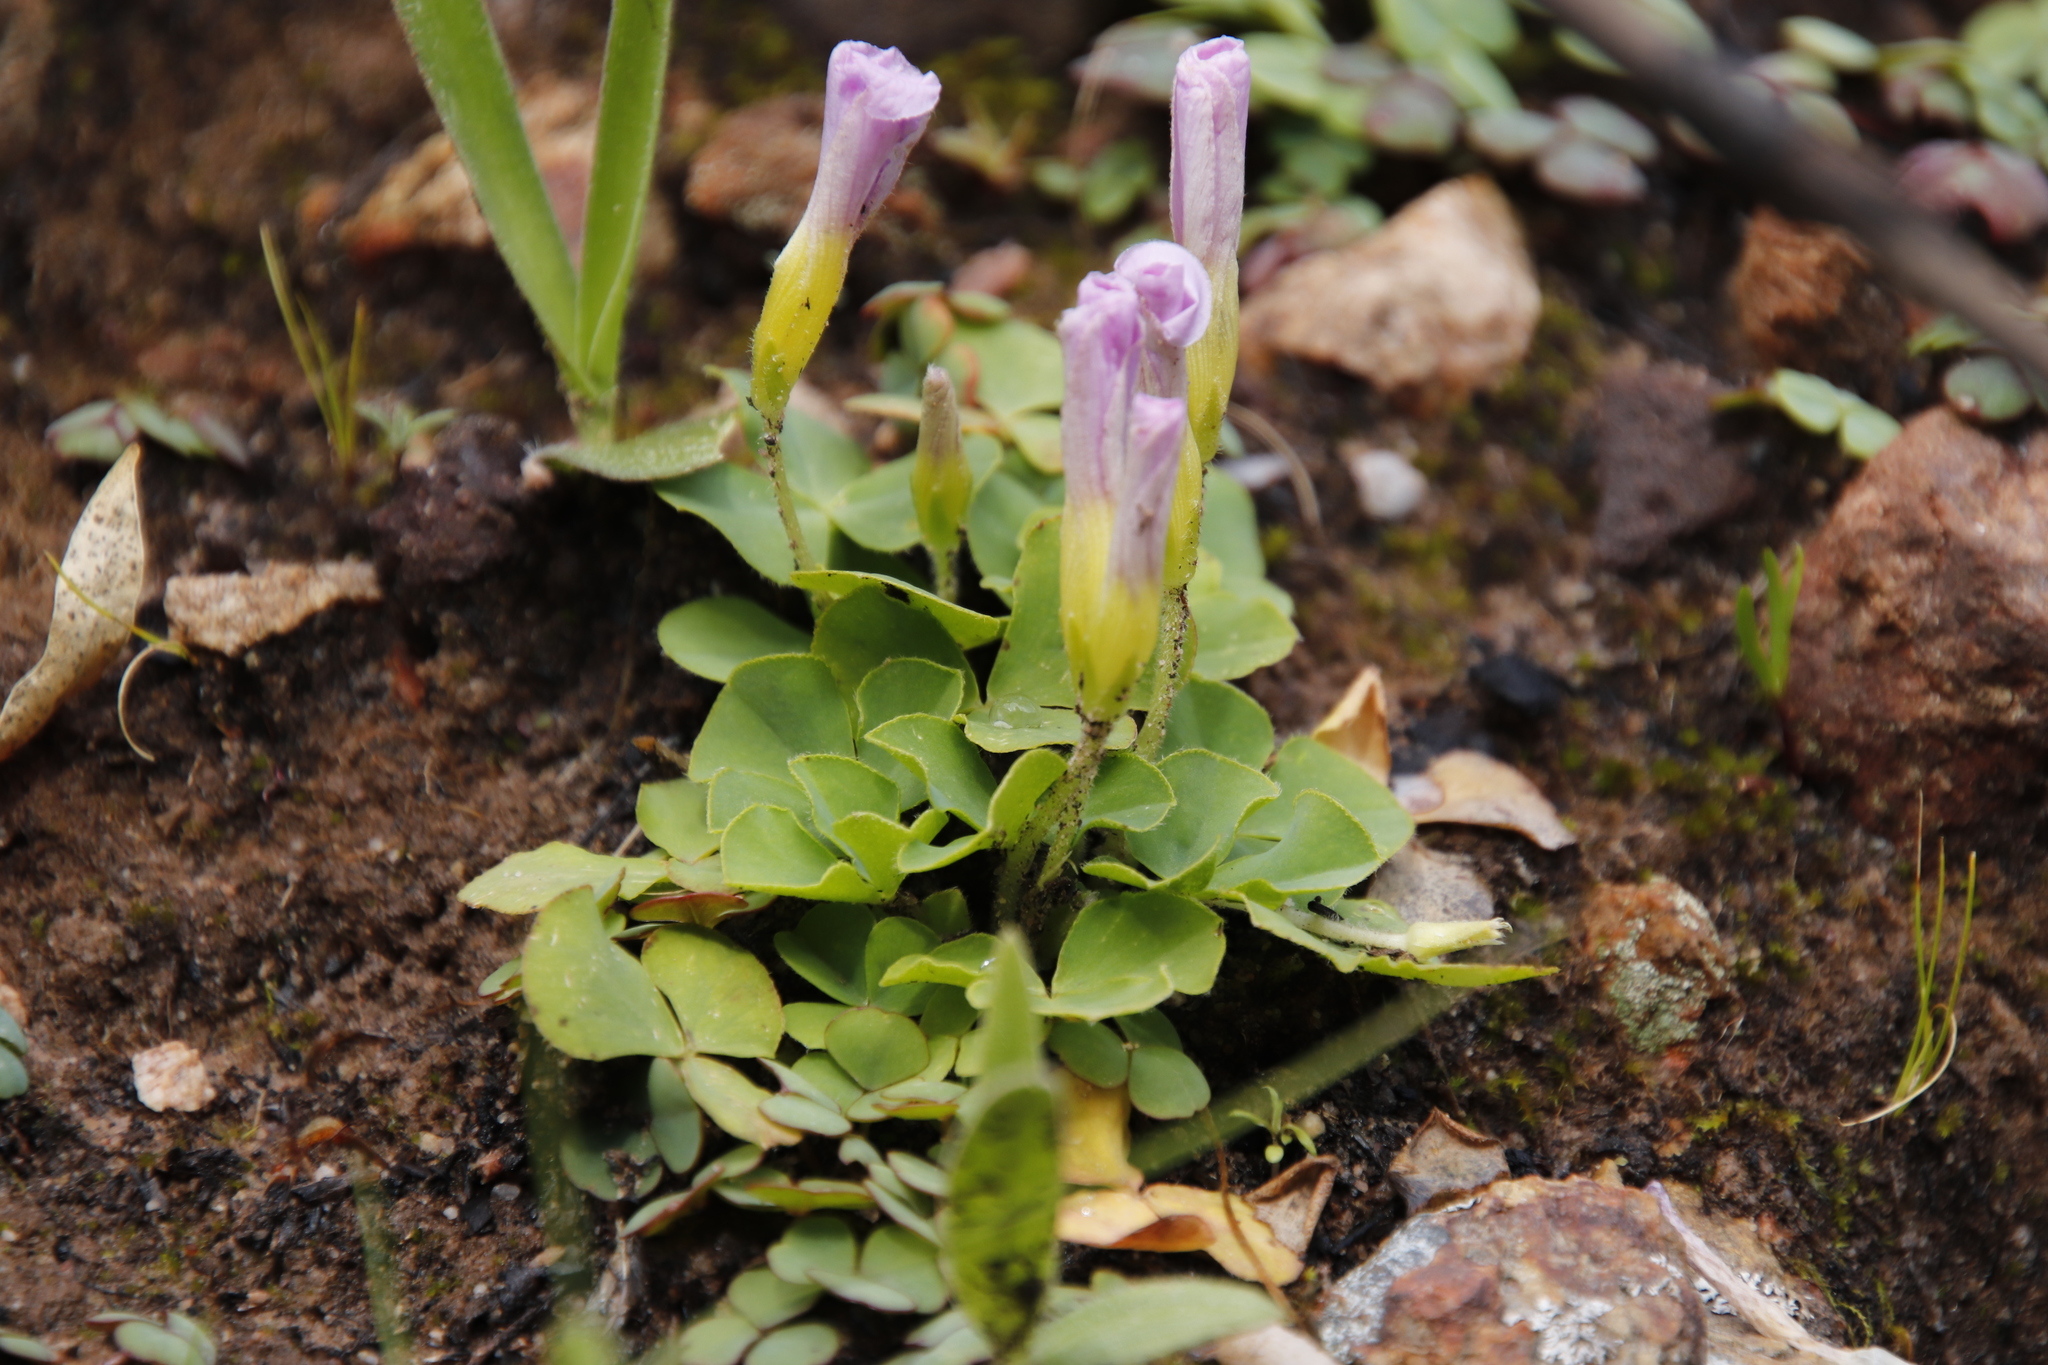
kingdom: Plantae
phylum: Tracheophyta
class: Magnoliopsida
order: Oxalidales
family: Oxalidaceae
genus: Oxalis
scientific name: Oxalis purpurea
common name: Purple woodsorrel
